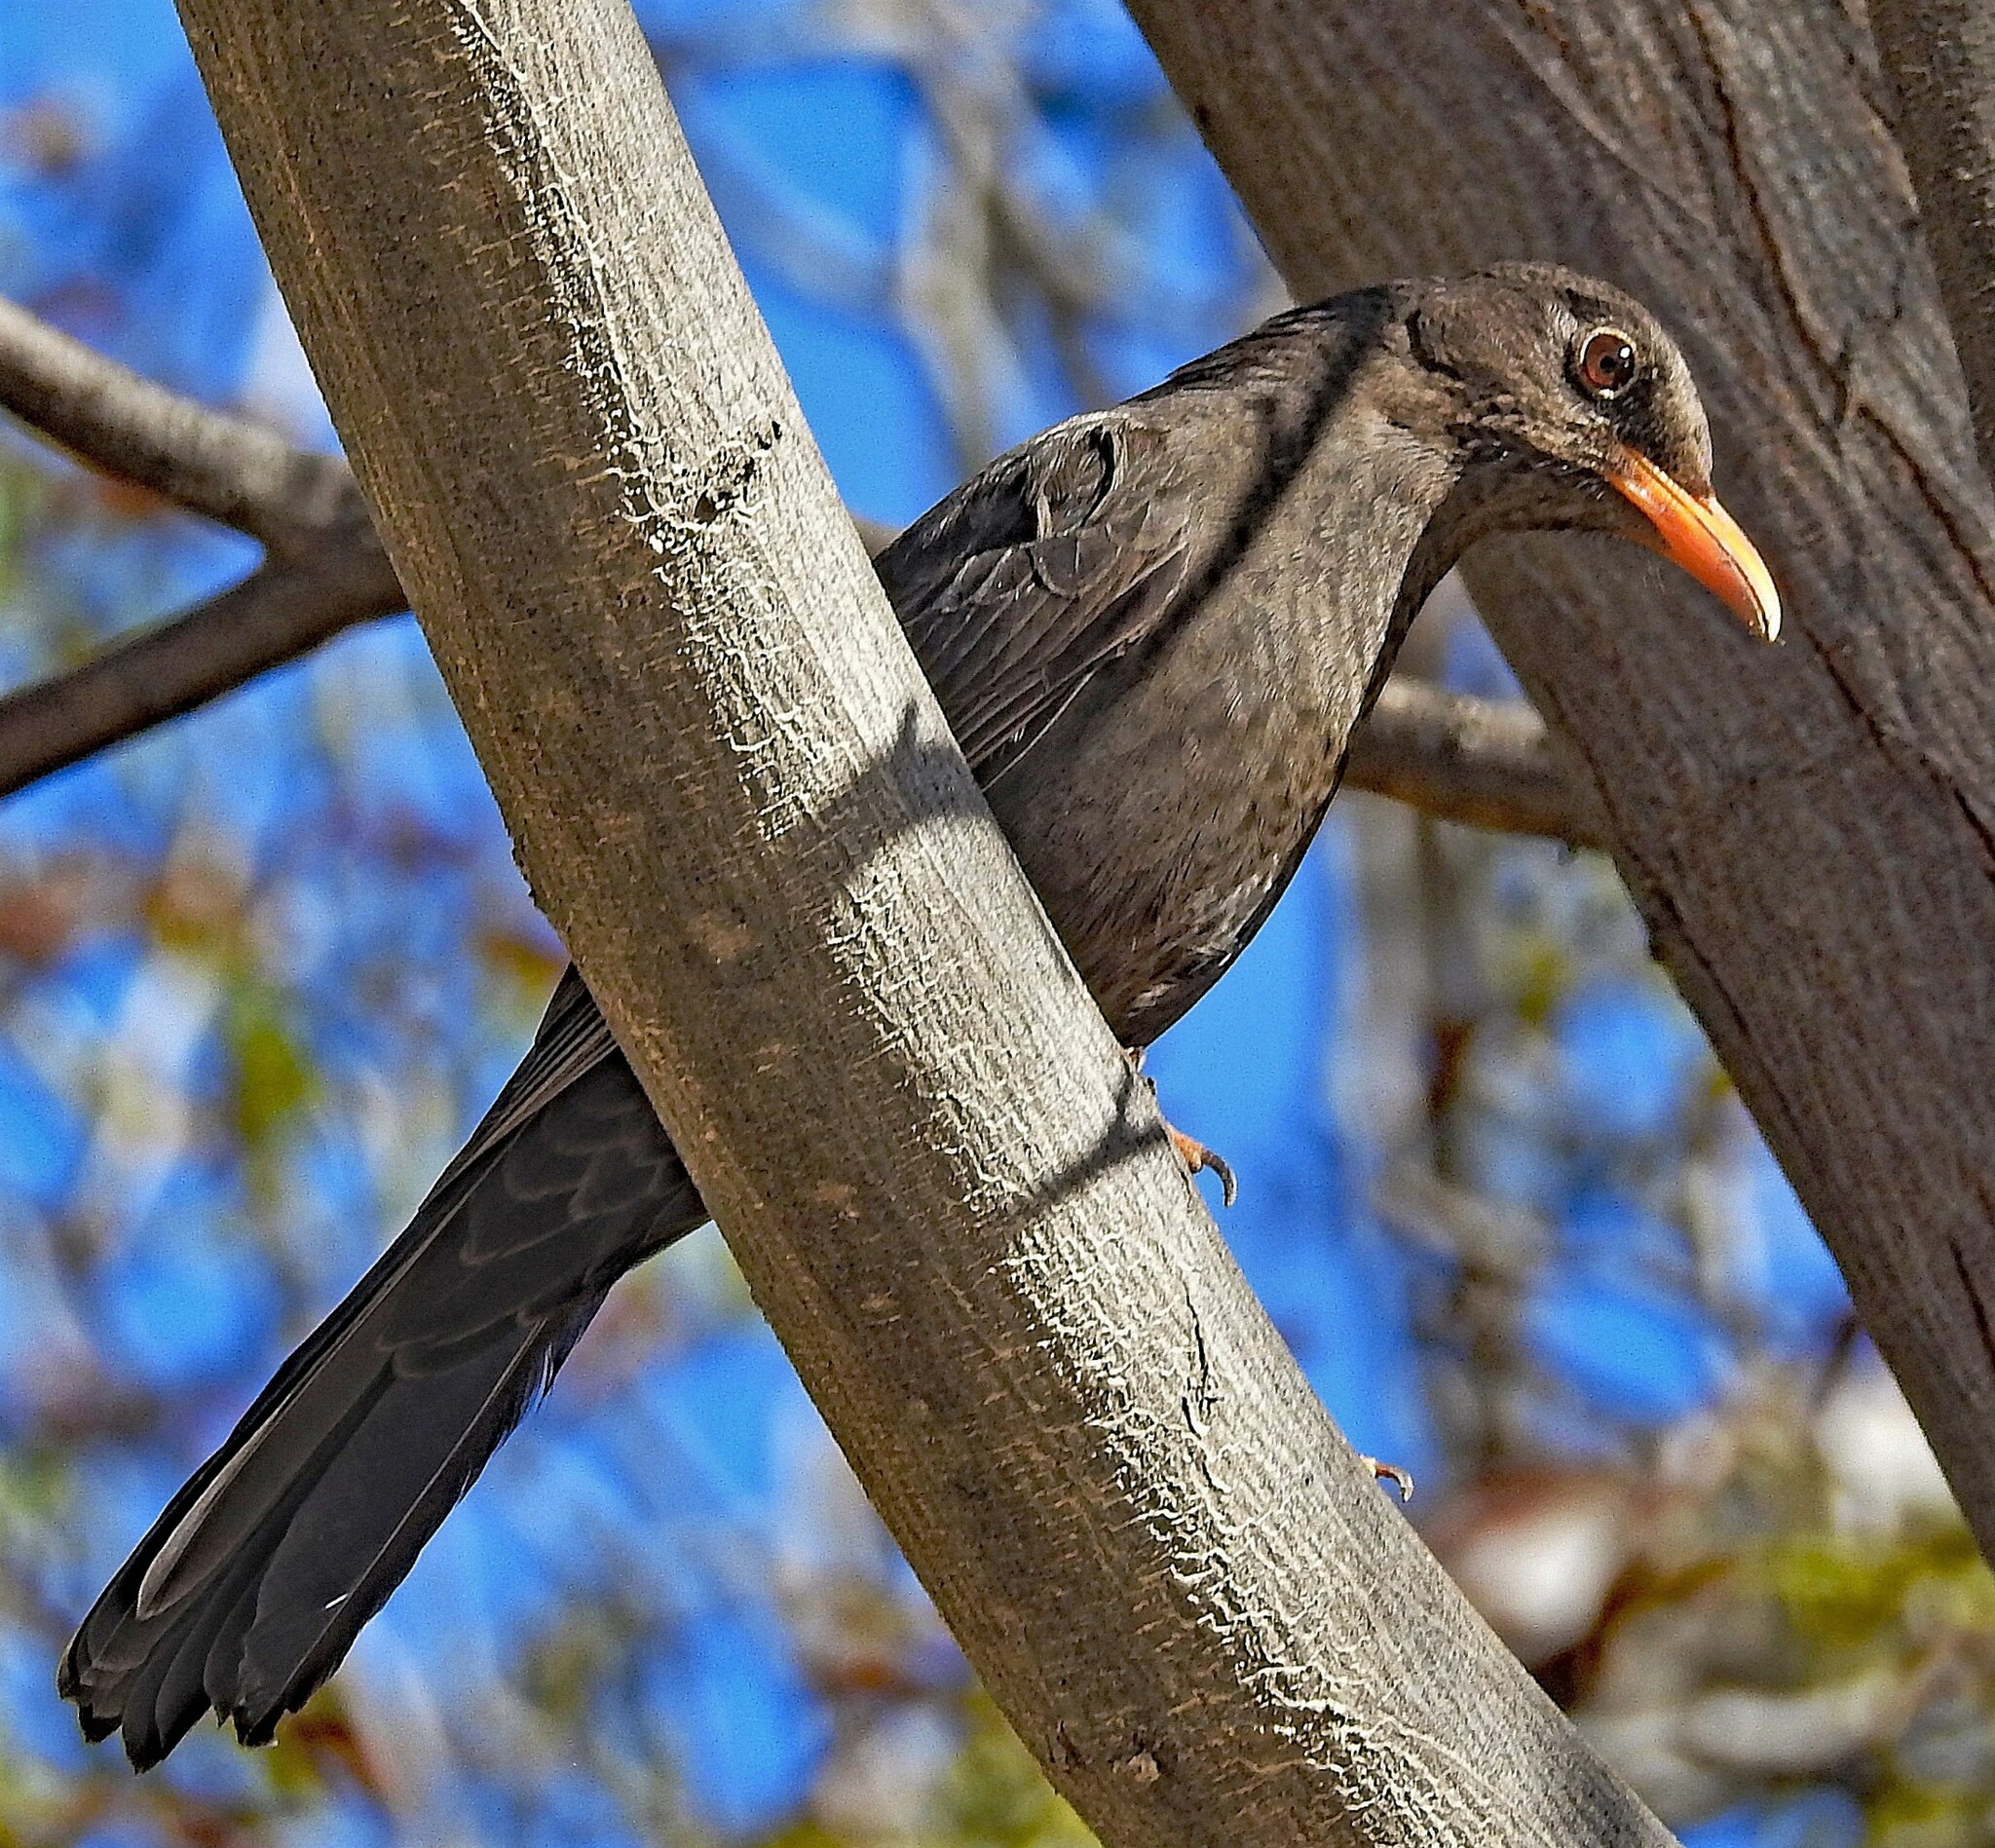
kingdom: Animalia
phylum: Chordata
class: Aves
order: Passeriformes
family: Turdidae
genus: Turdus
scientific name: Turdus chiguanco
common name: Chiguanco thrush
